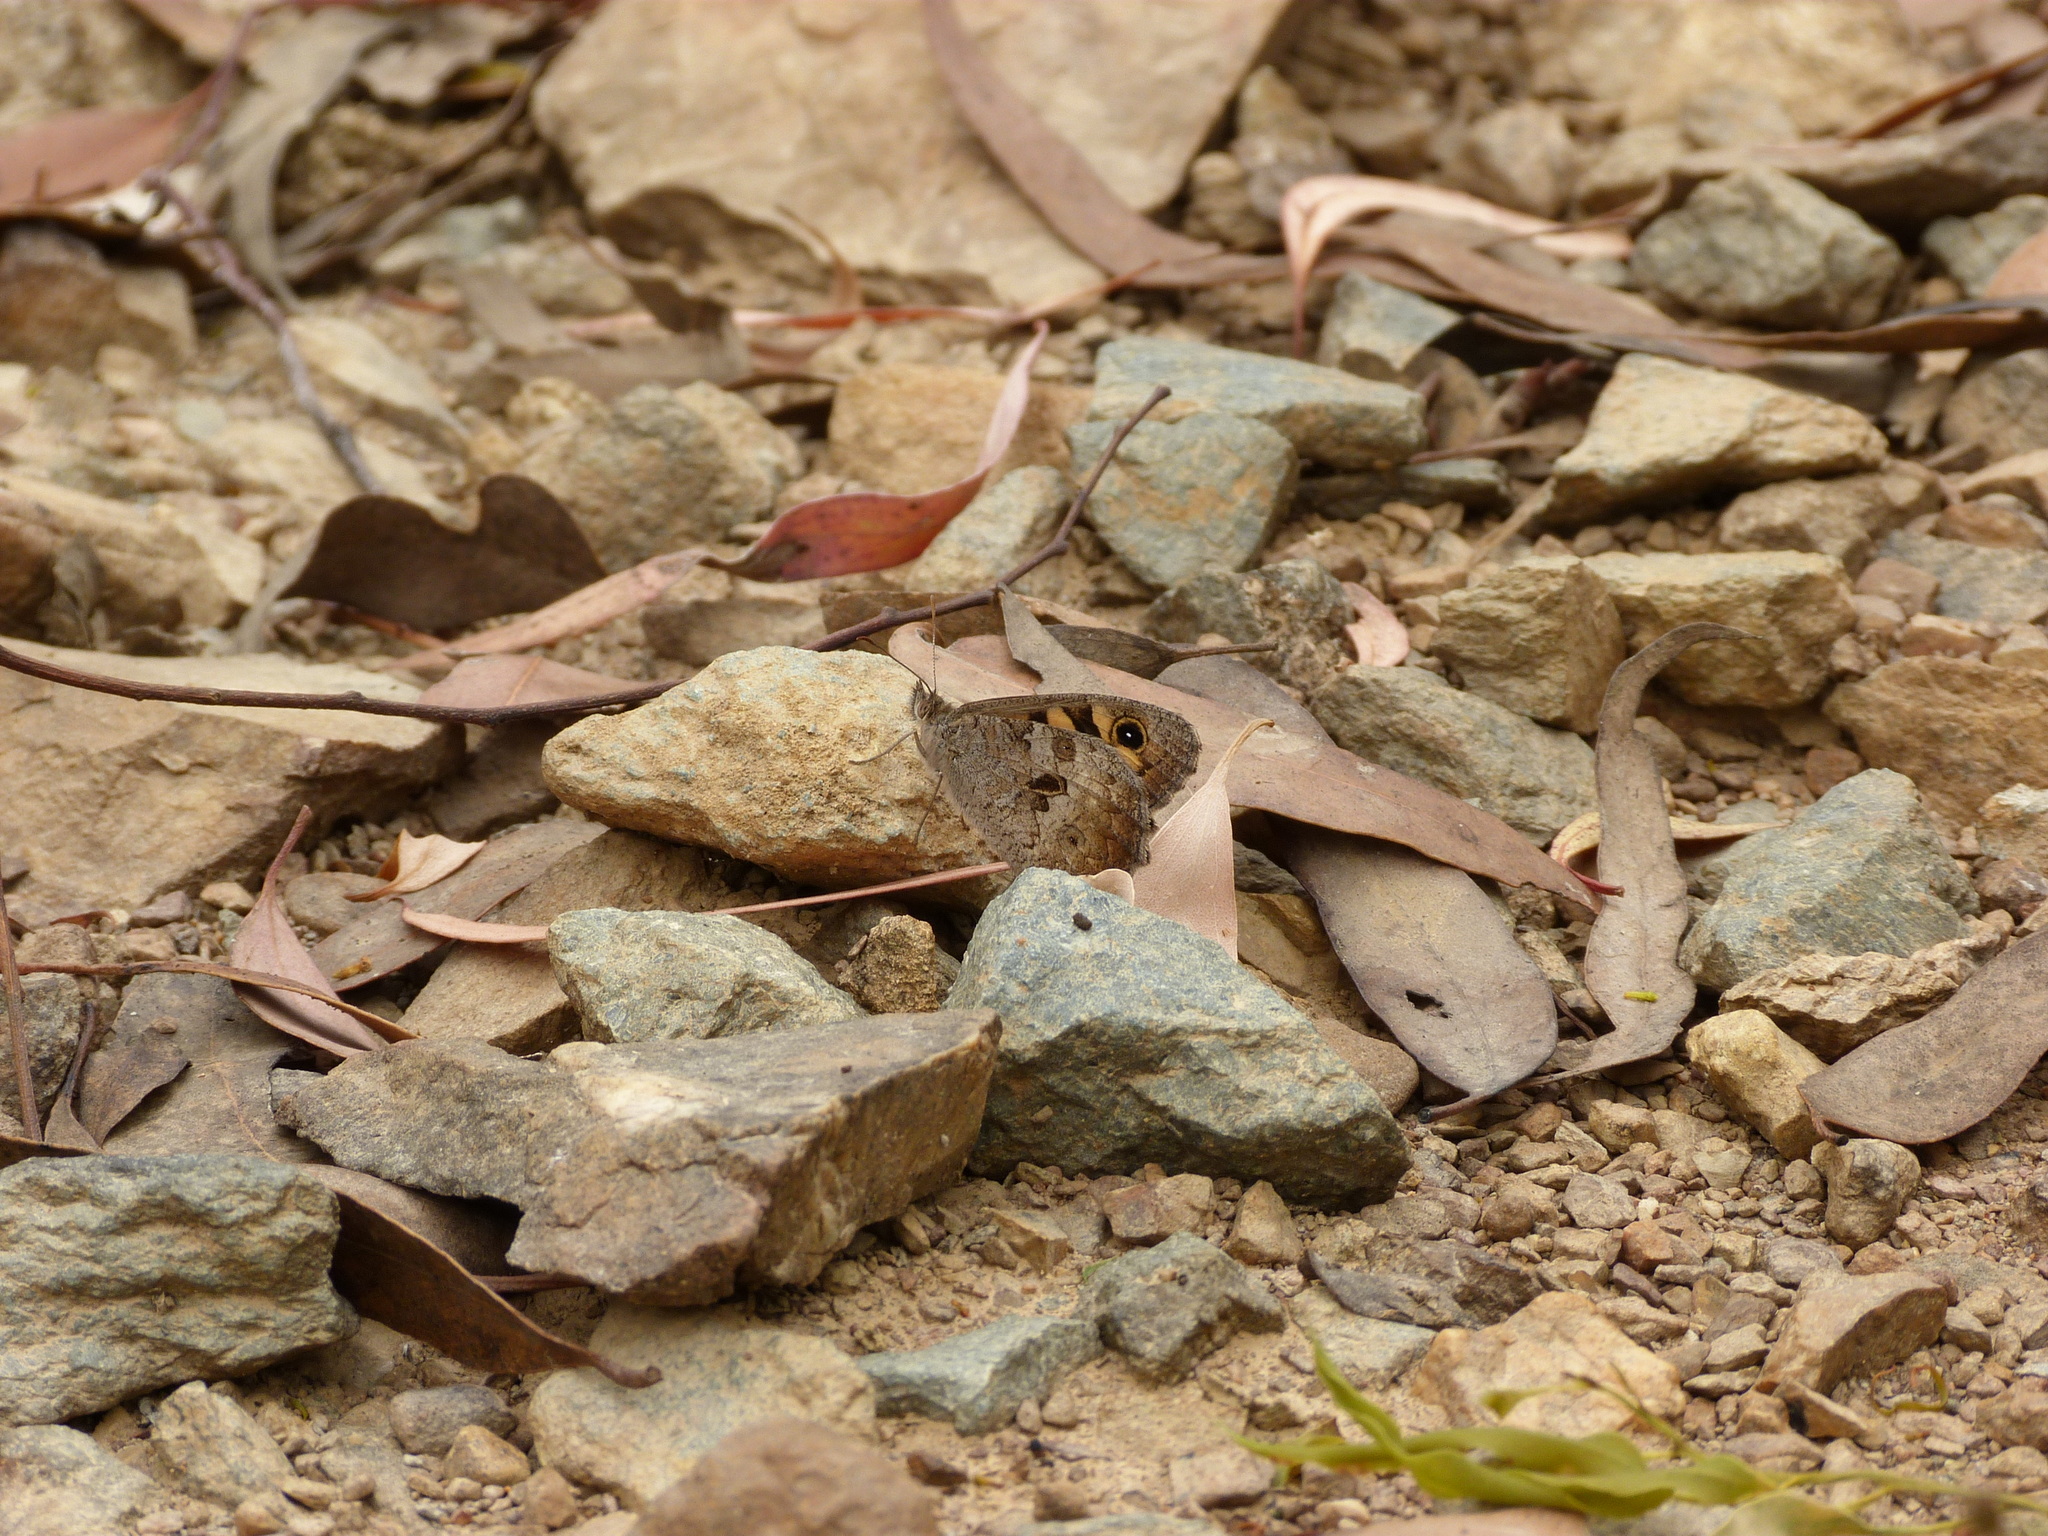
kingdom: Animalia
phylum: Arthropoda
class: Insecta
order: Lepidoptera
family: Nymphalidae
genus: Geitoneura
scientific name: Geitoneura klugii
